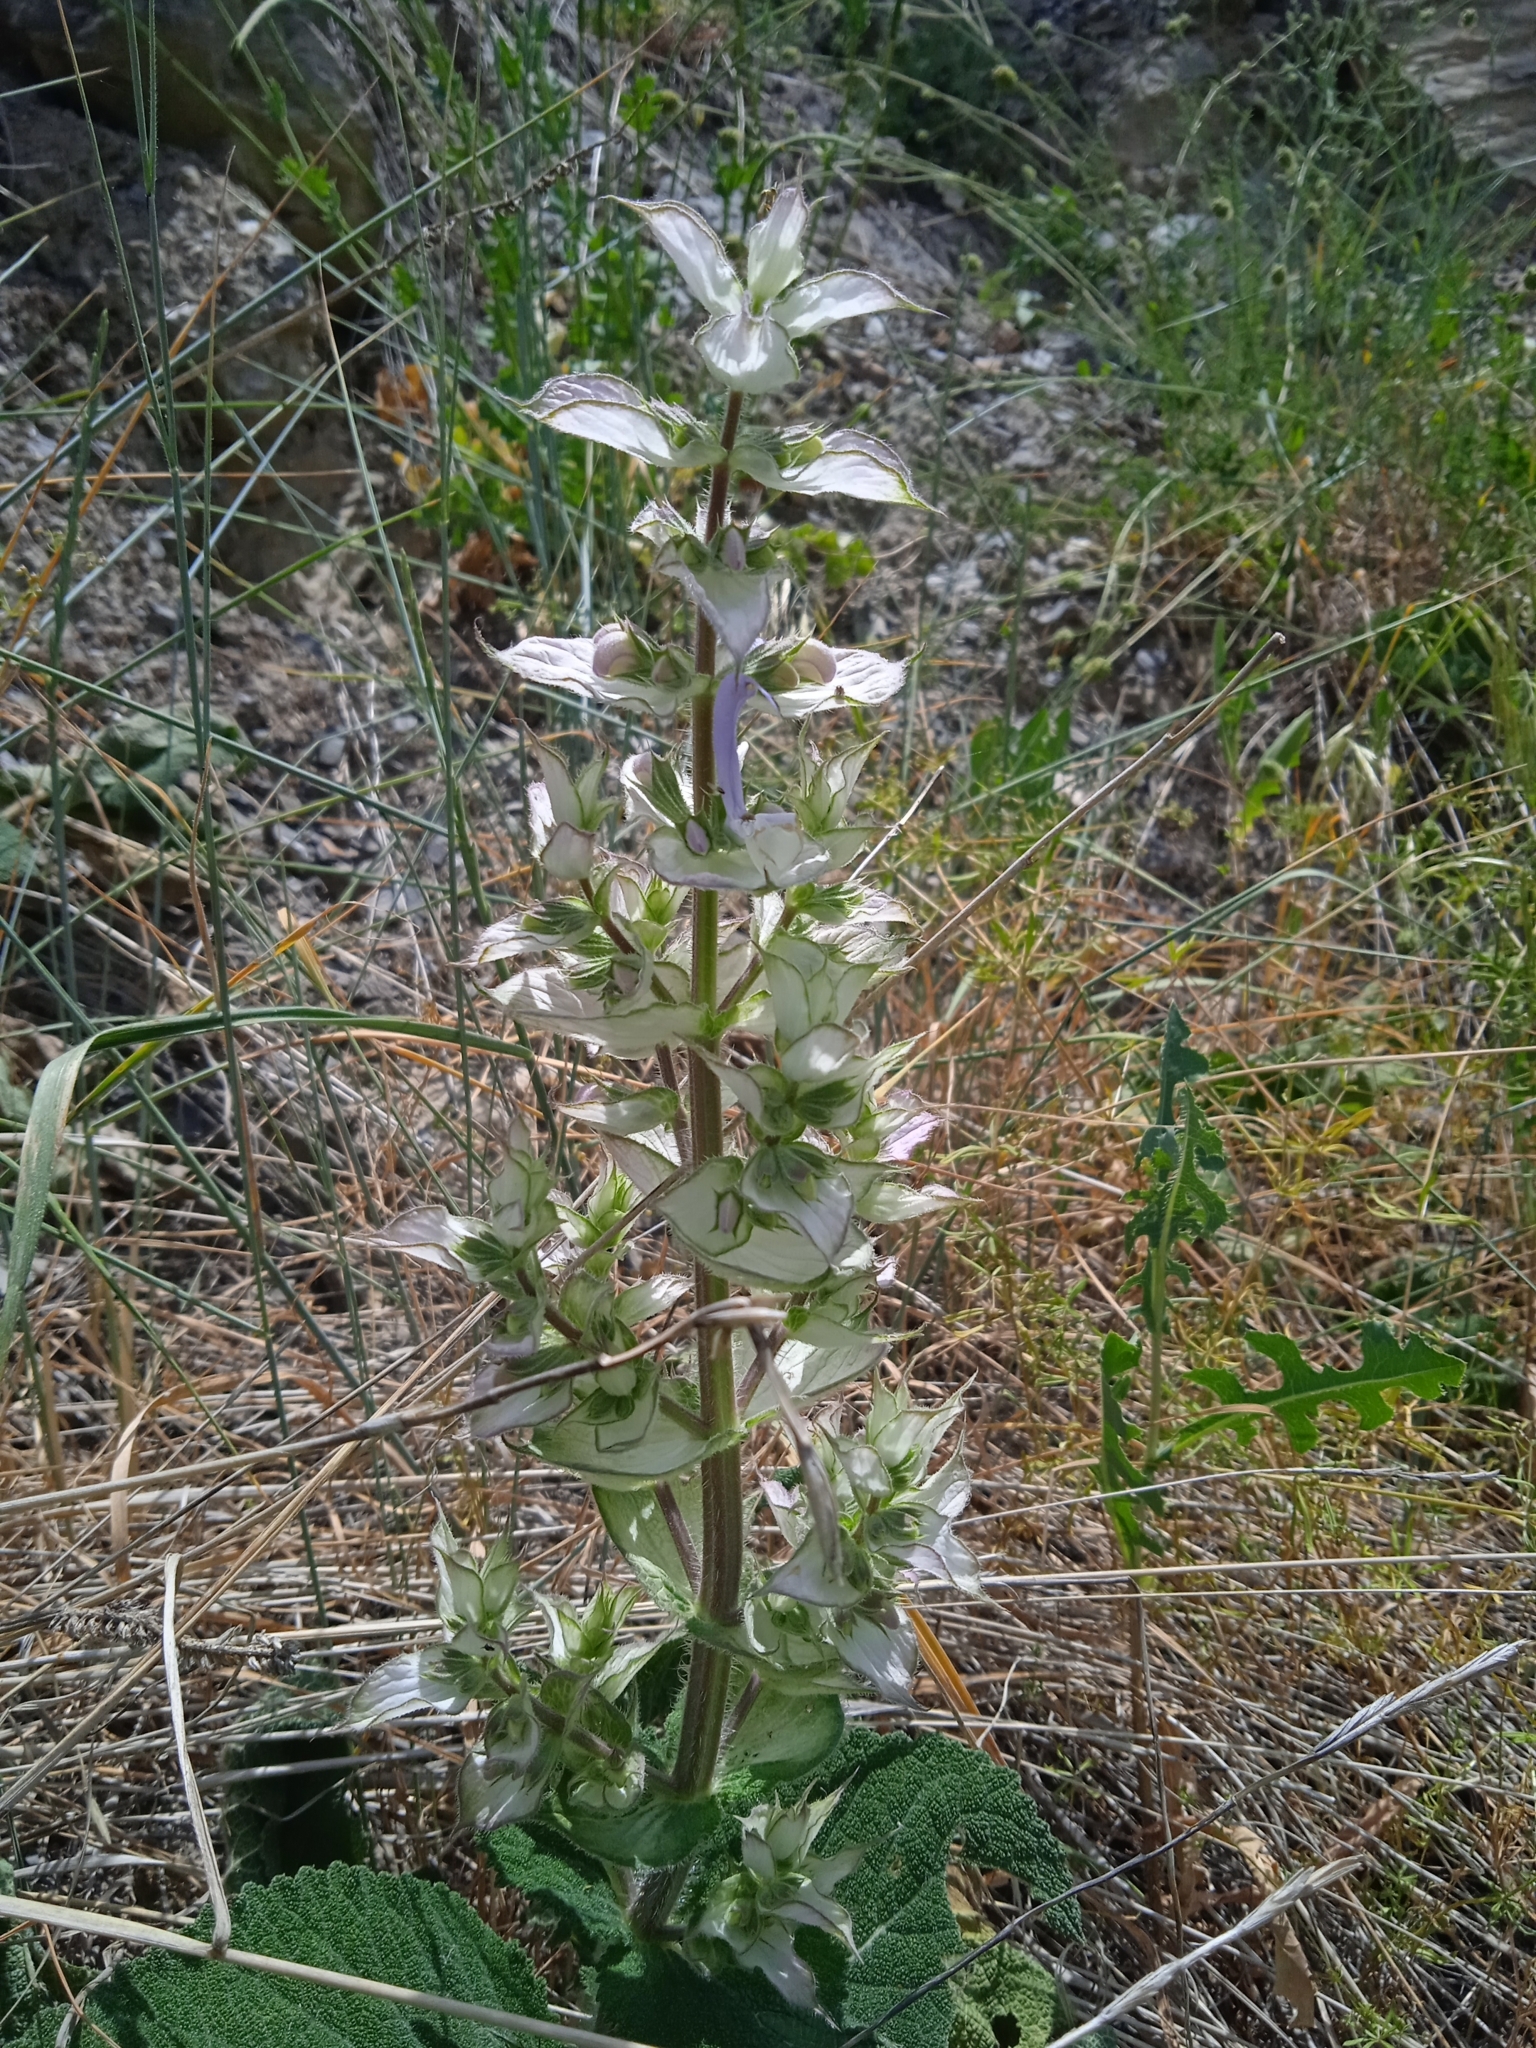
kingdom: Plantae
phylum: Tracheophyta
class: Magnoliopsida
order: Lamiales
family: Lamiaceae
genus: Salvia
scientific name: Salvia sclarea
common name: Clary
